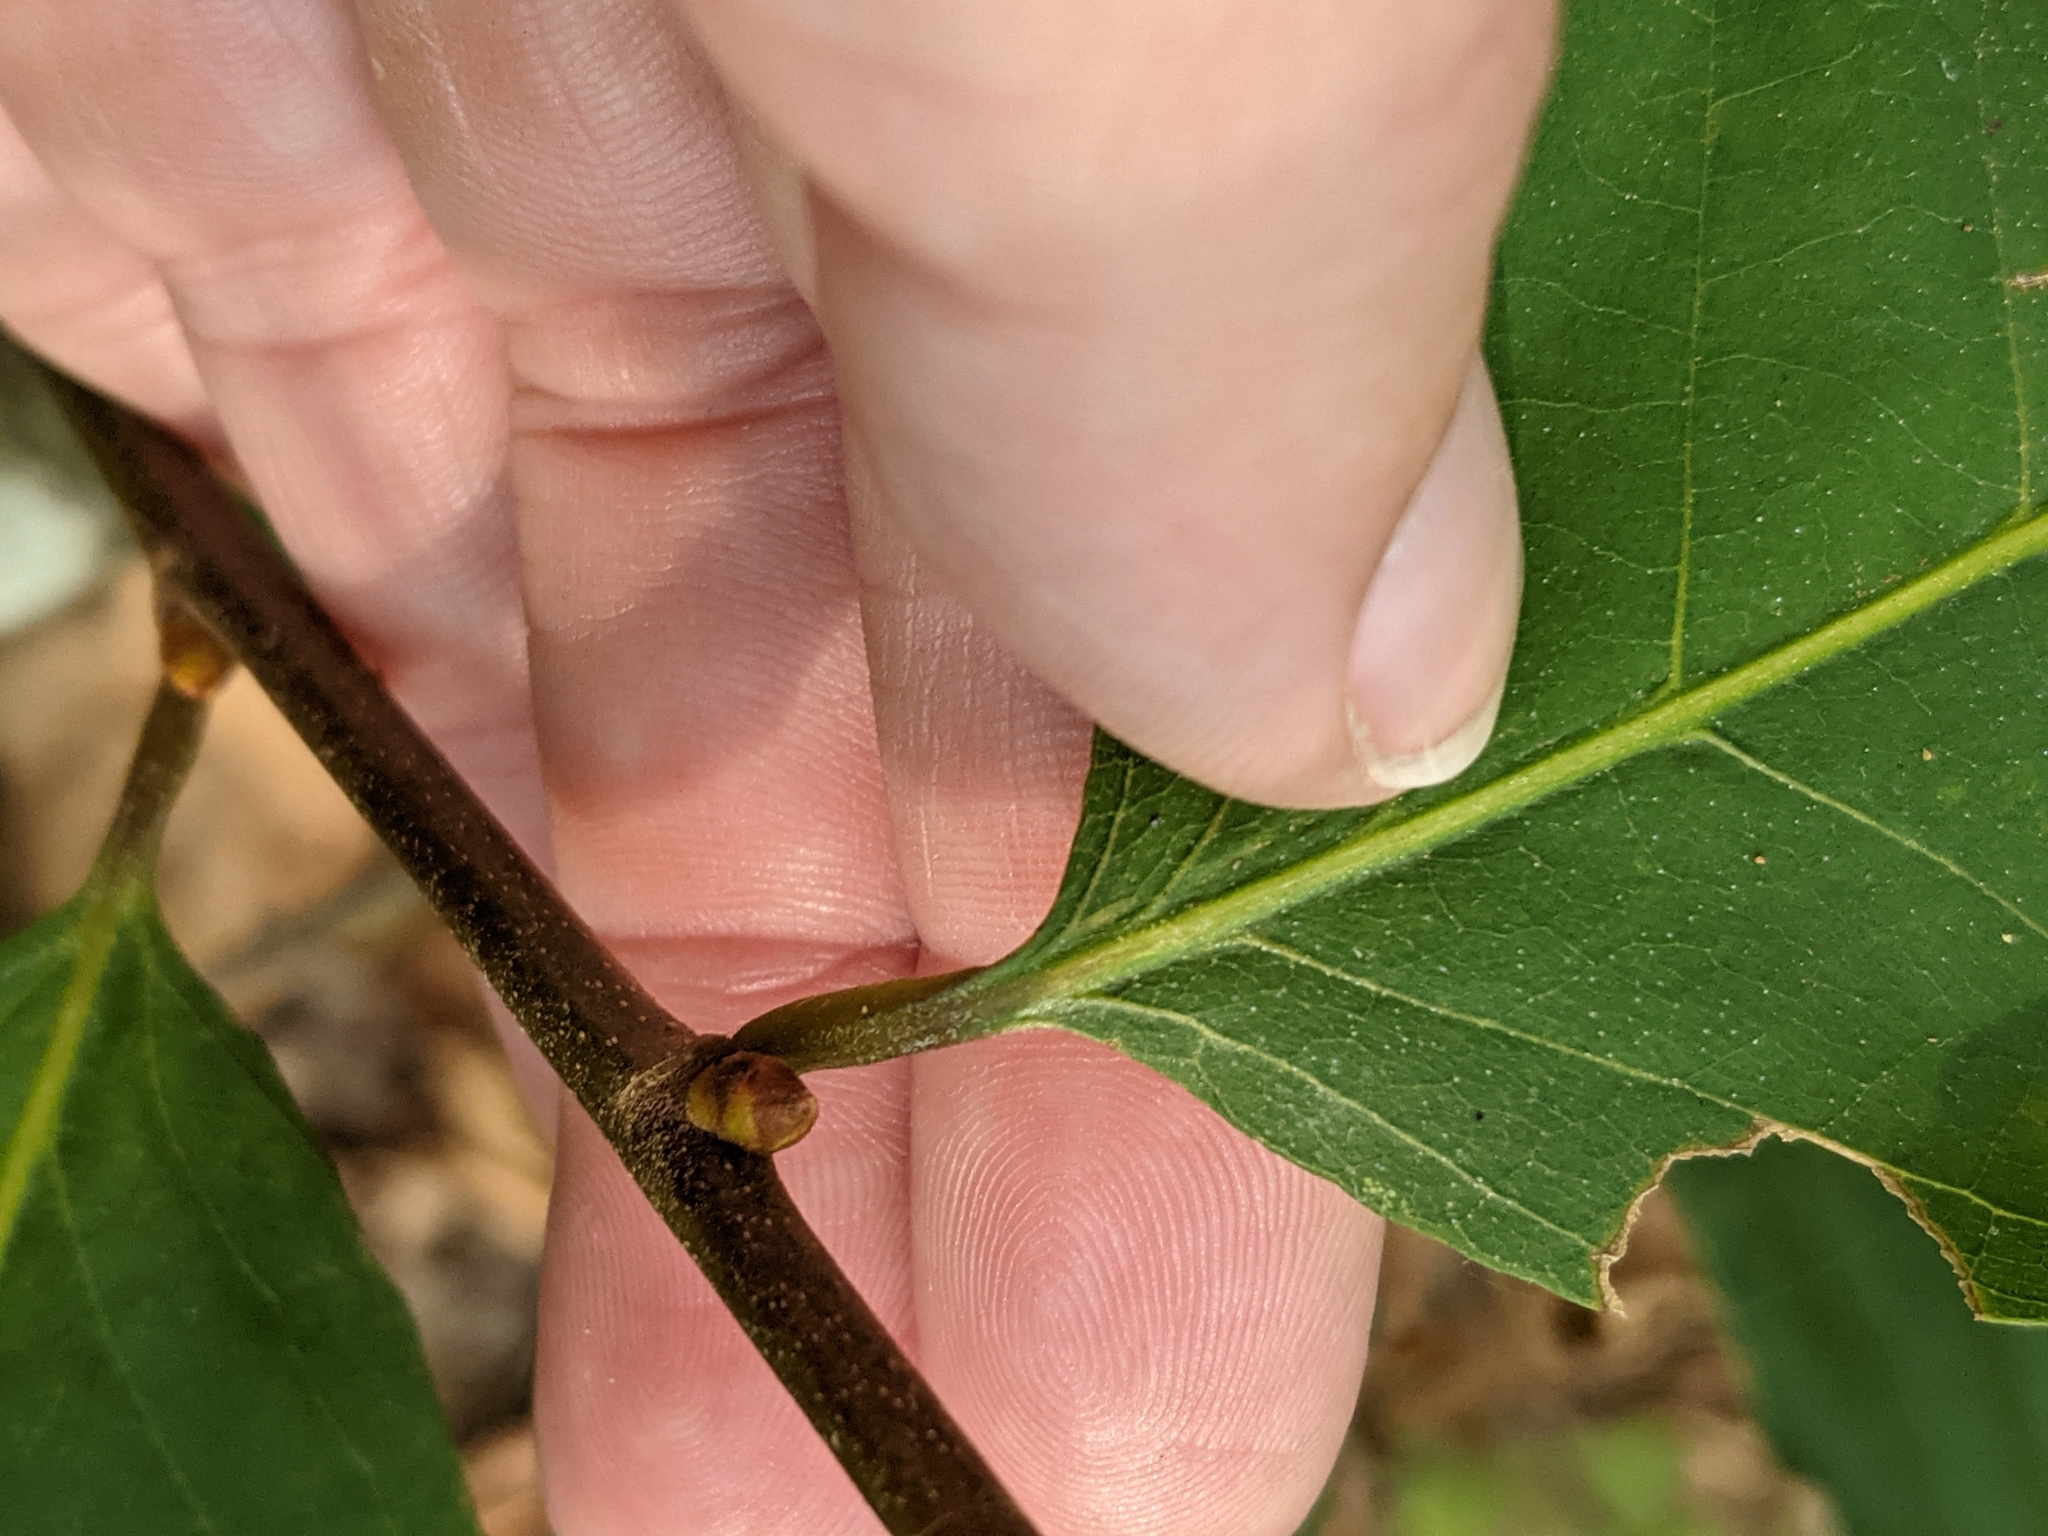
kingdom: Plantae
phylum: Tracheophyta
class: Magnoliopsida
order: Fagales
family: Fagaceae
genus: Castanea
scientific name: Castanea dentata
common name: American chestnut
